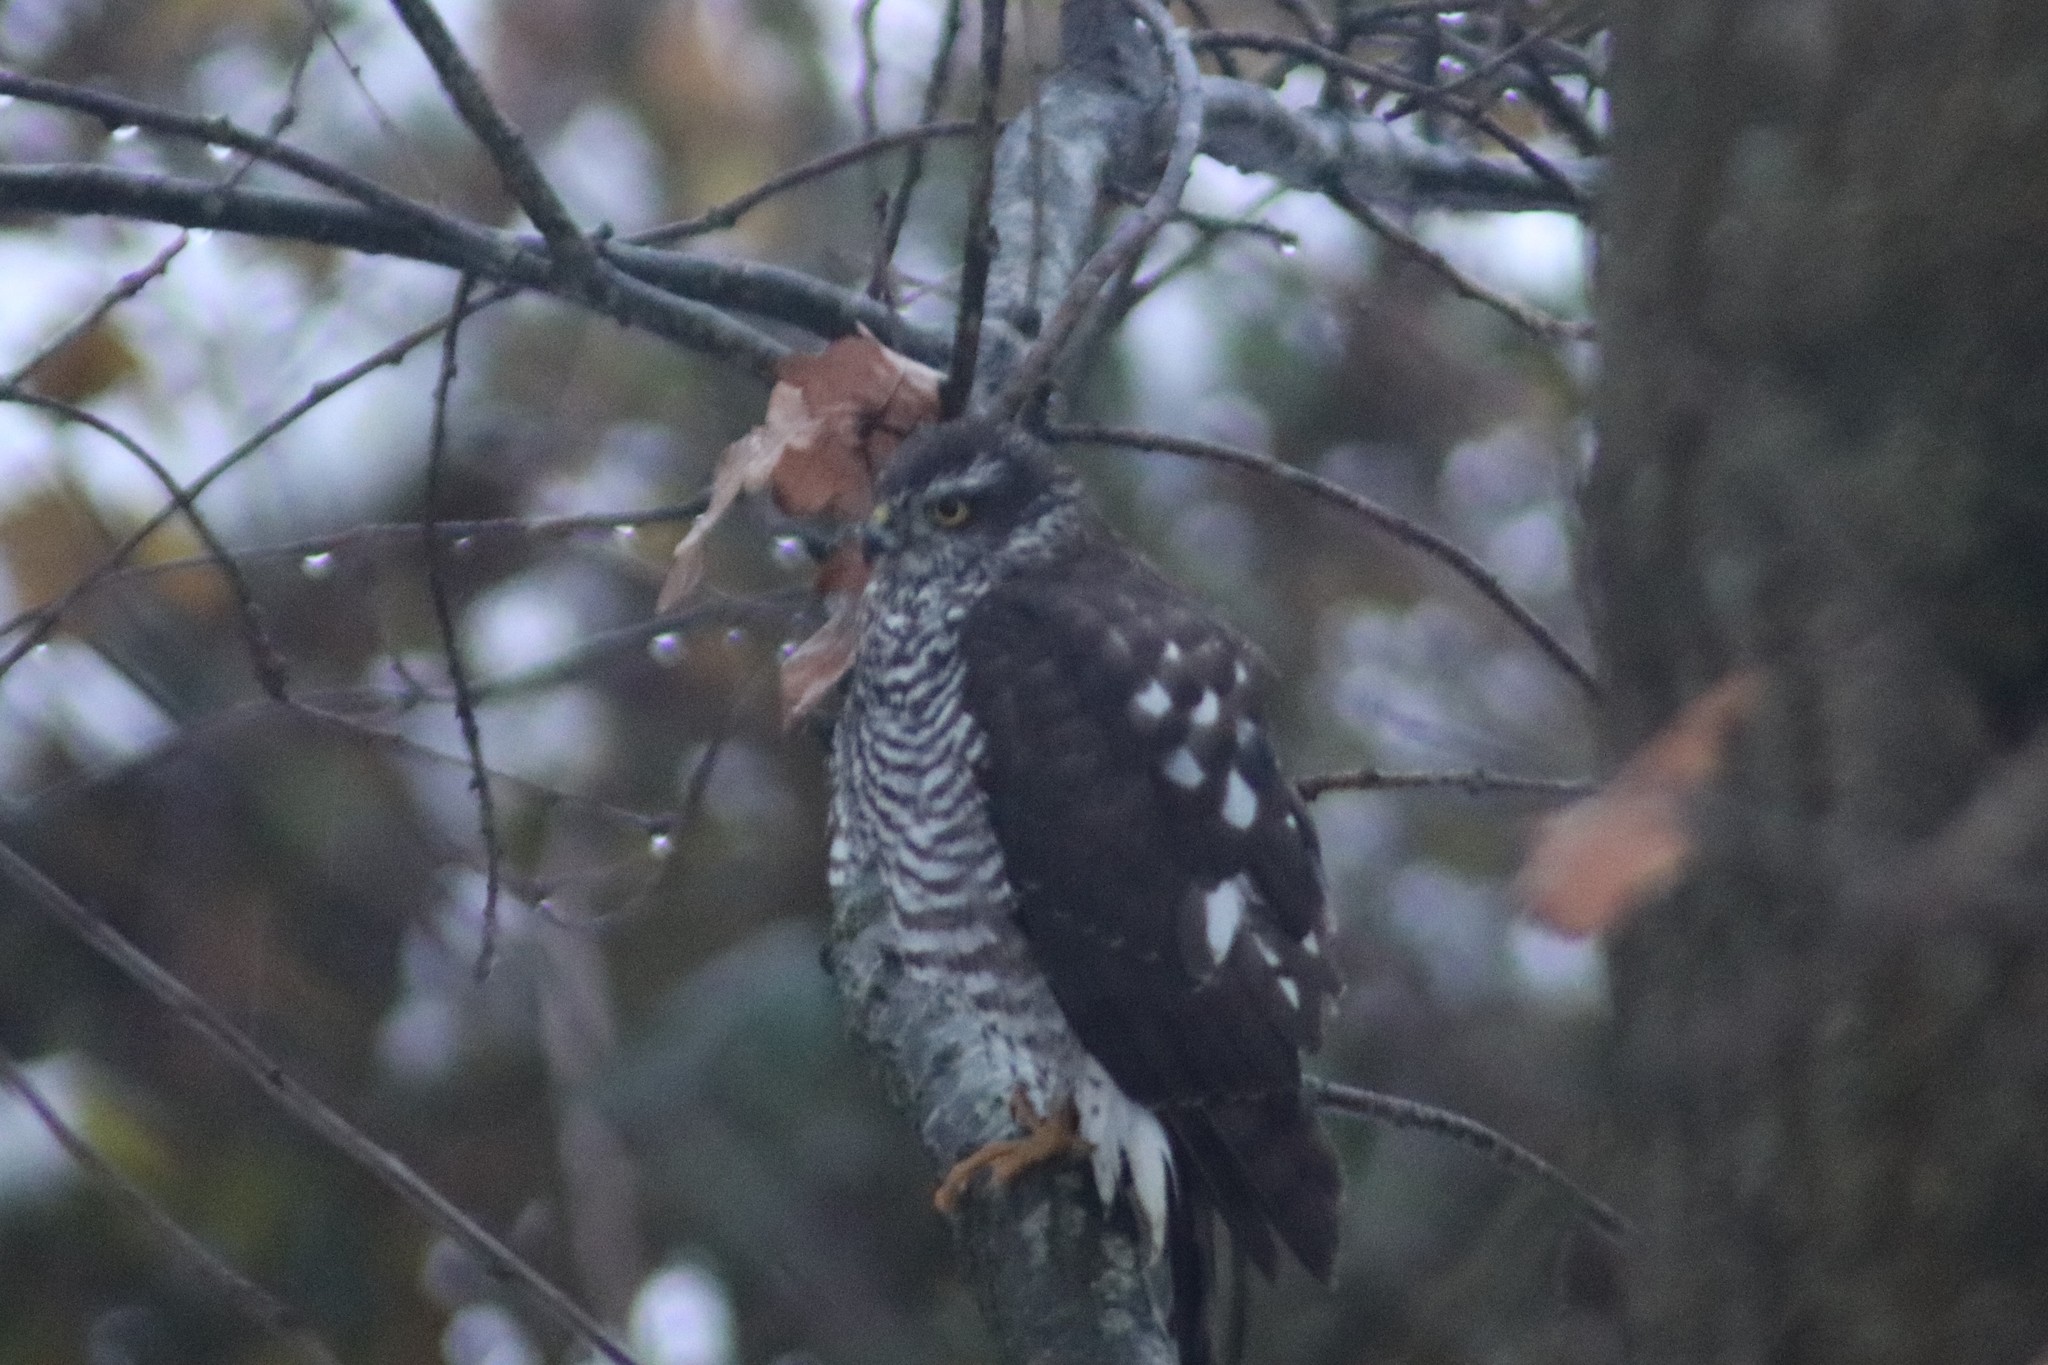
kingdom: Animalia
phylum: Chordata
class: Aves
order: Accipitriformes
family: Accipitridae
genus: Accipiter
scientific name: Accipiter nisus
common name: Eurasian sparrowhawk
